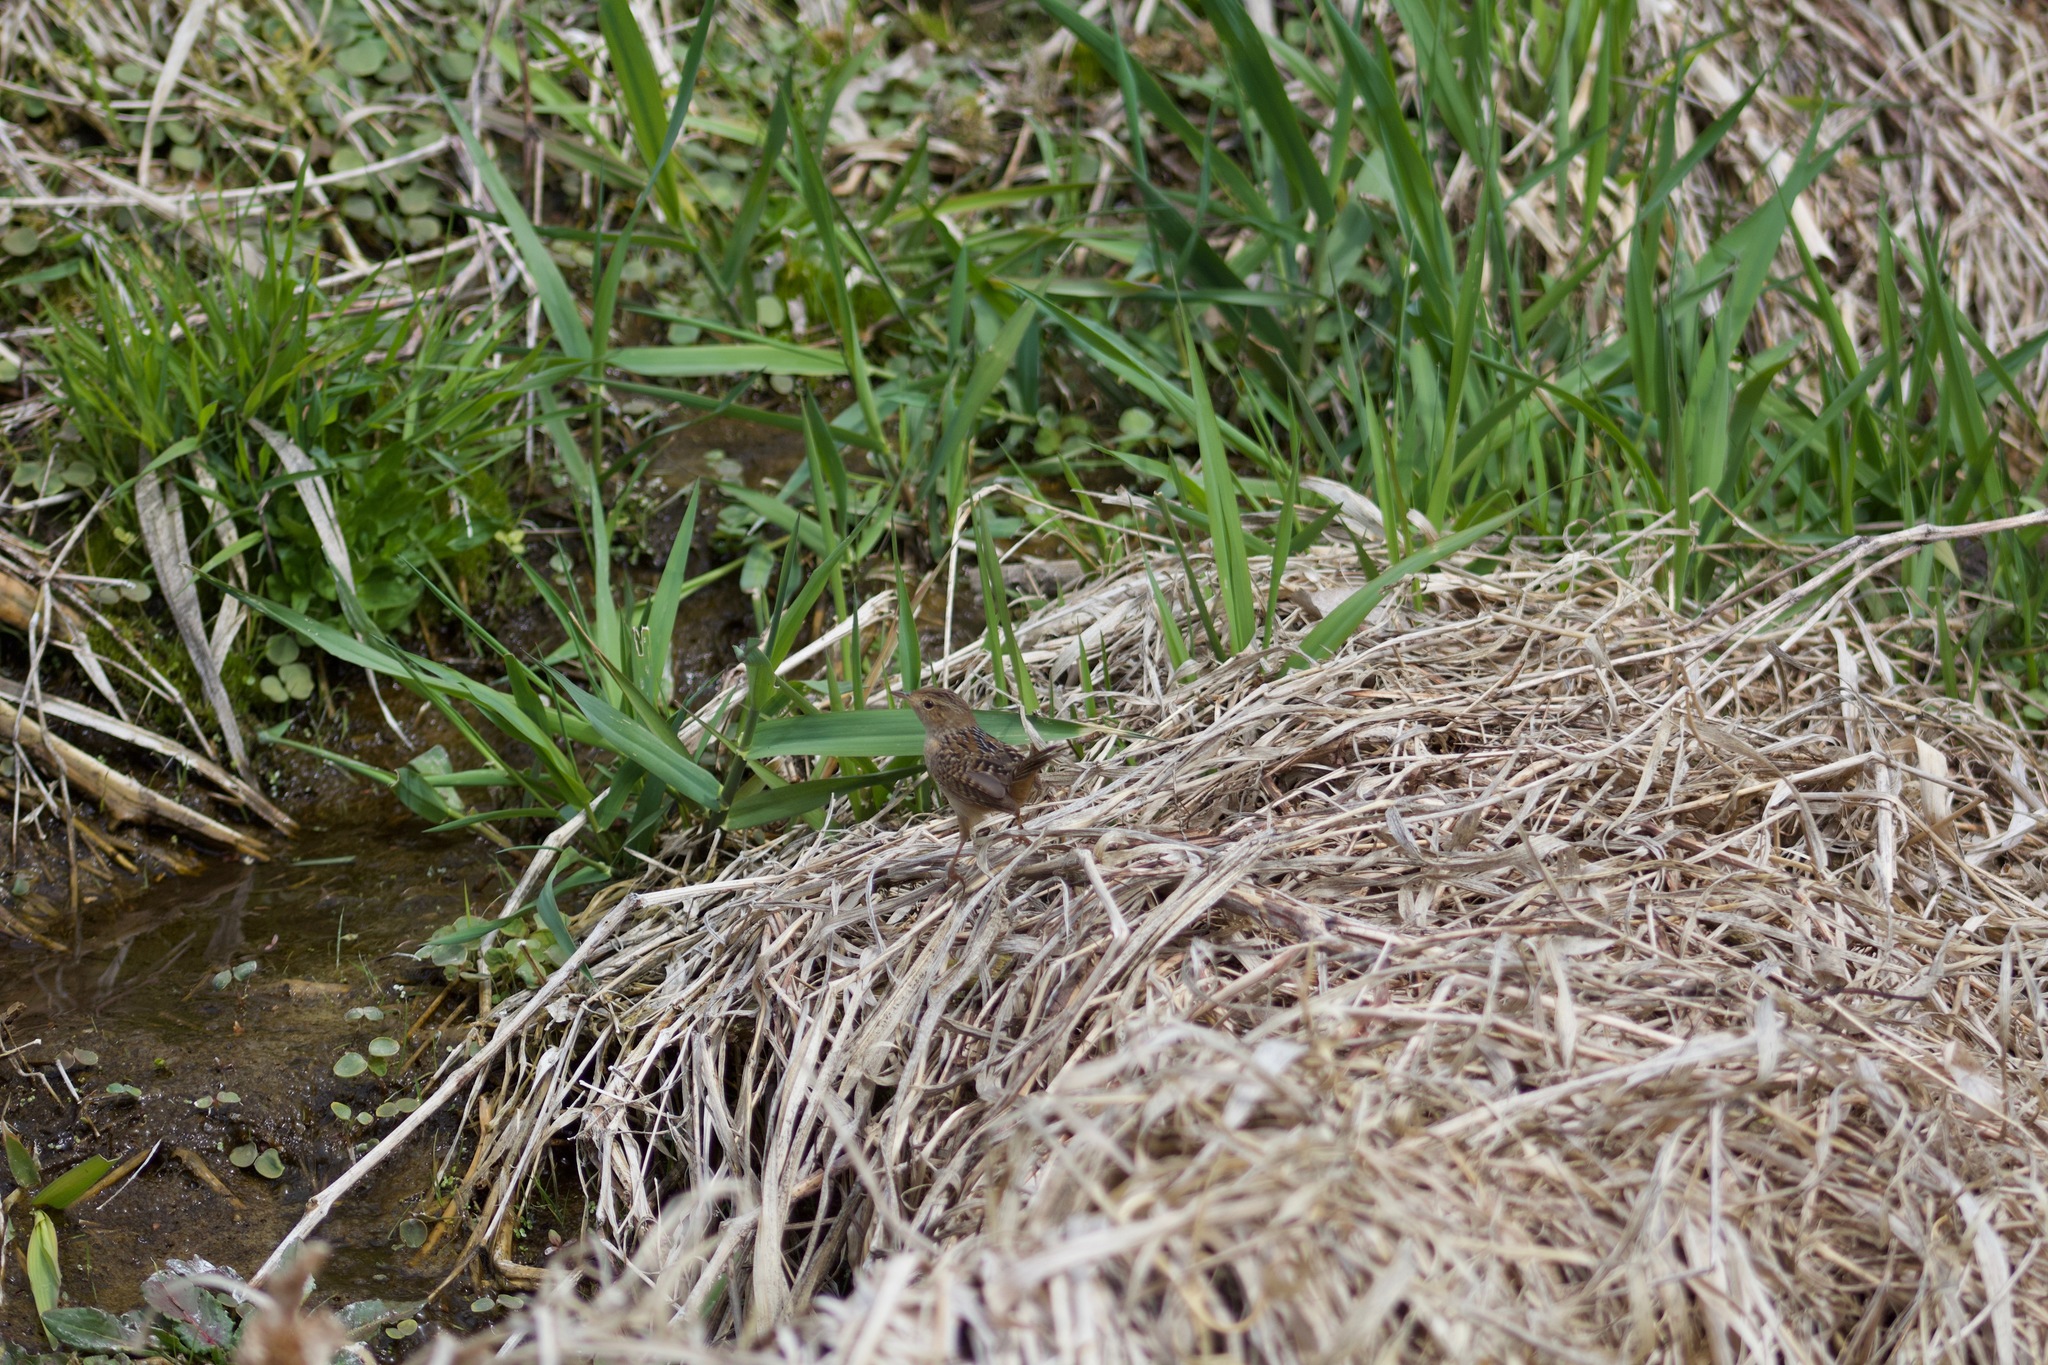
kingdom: Animalia
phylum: Chordata
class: Aves
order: Passeriformes
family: Troglodytidae
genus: Cistothorus
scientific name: Cistothorus platensis
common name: Sedge wren
